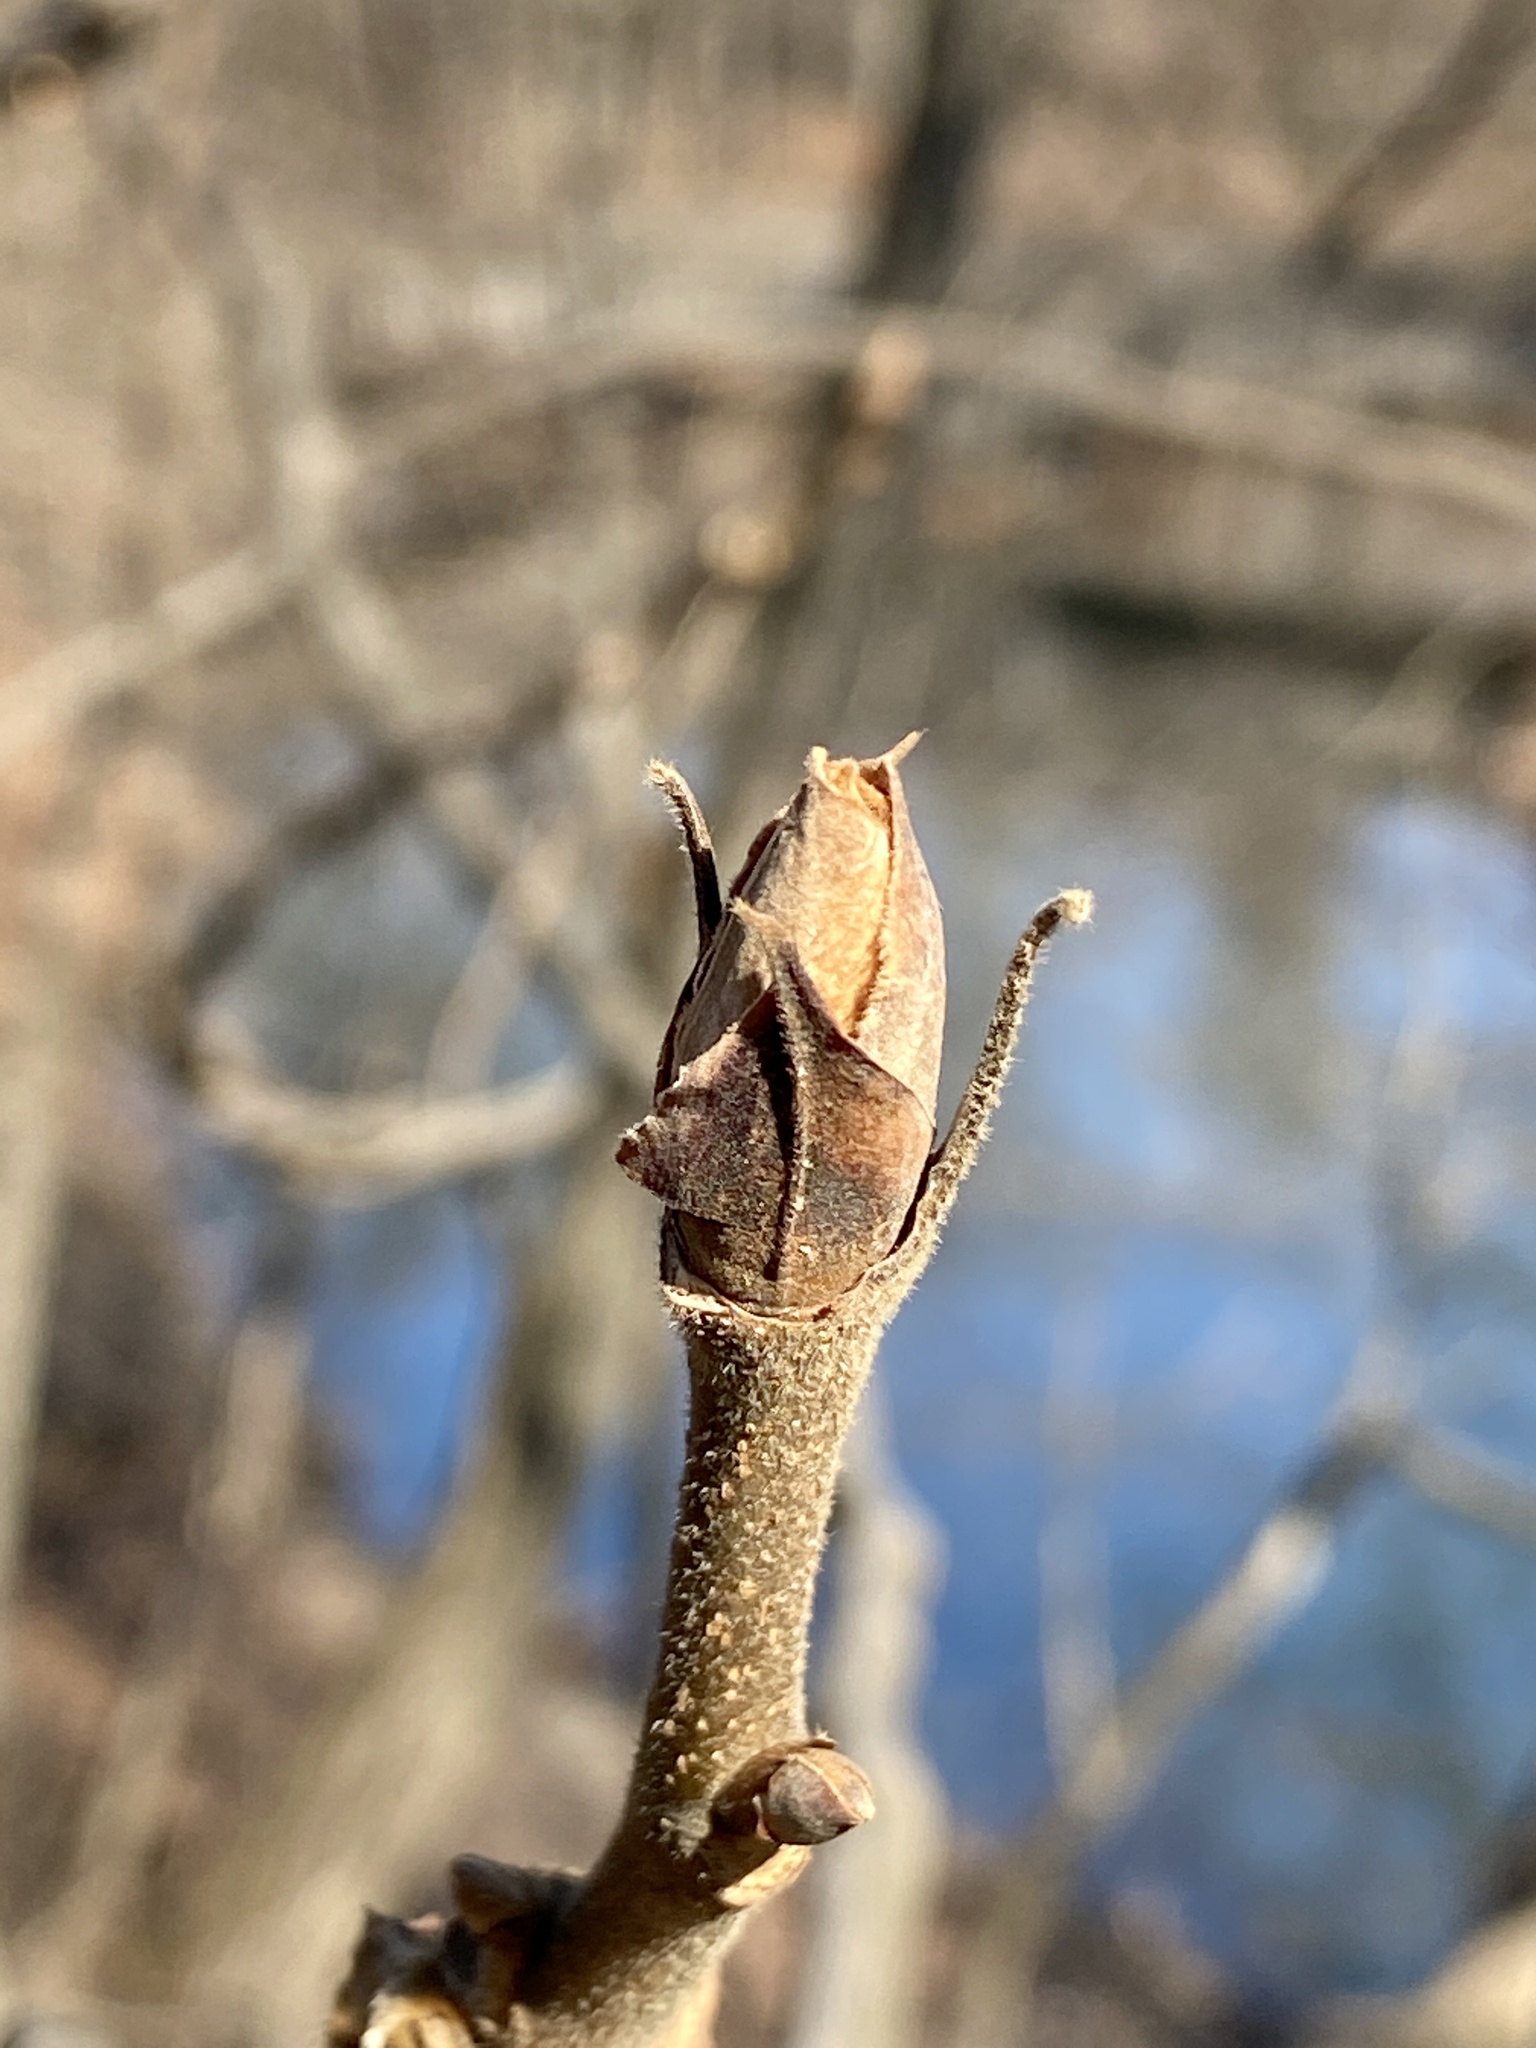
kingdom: Plantae
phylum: Tracheophyta
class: Magnoliopsida
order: Fagales
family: Juglandaceae
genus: Carya
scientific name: Carya
